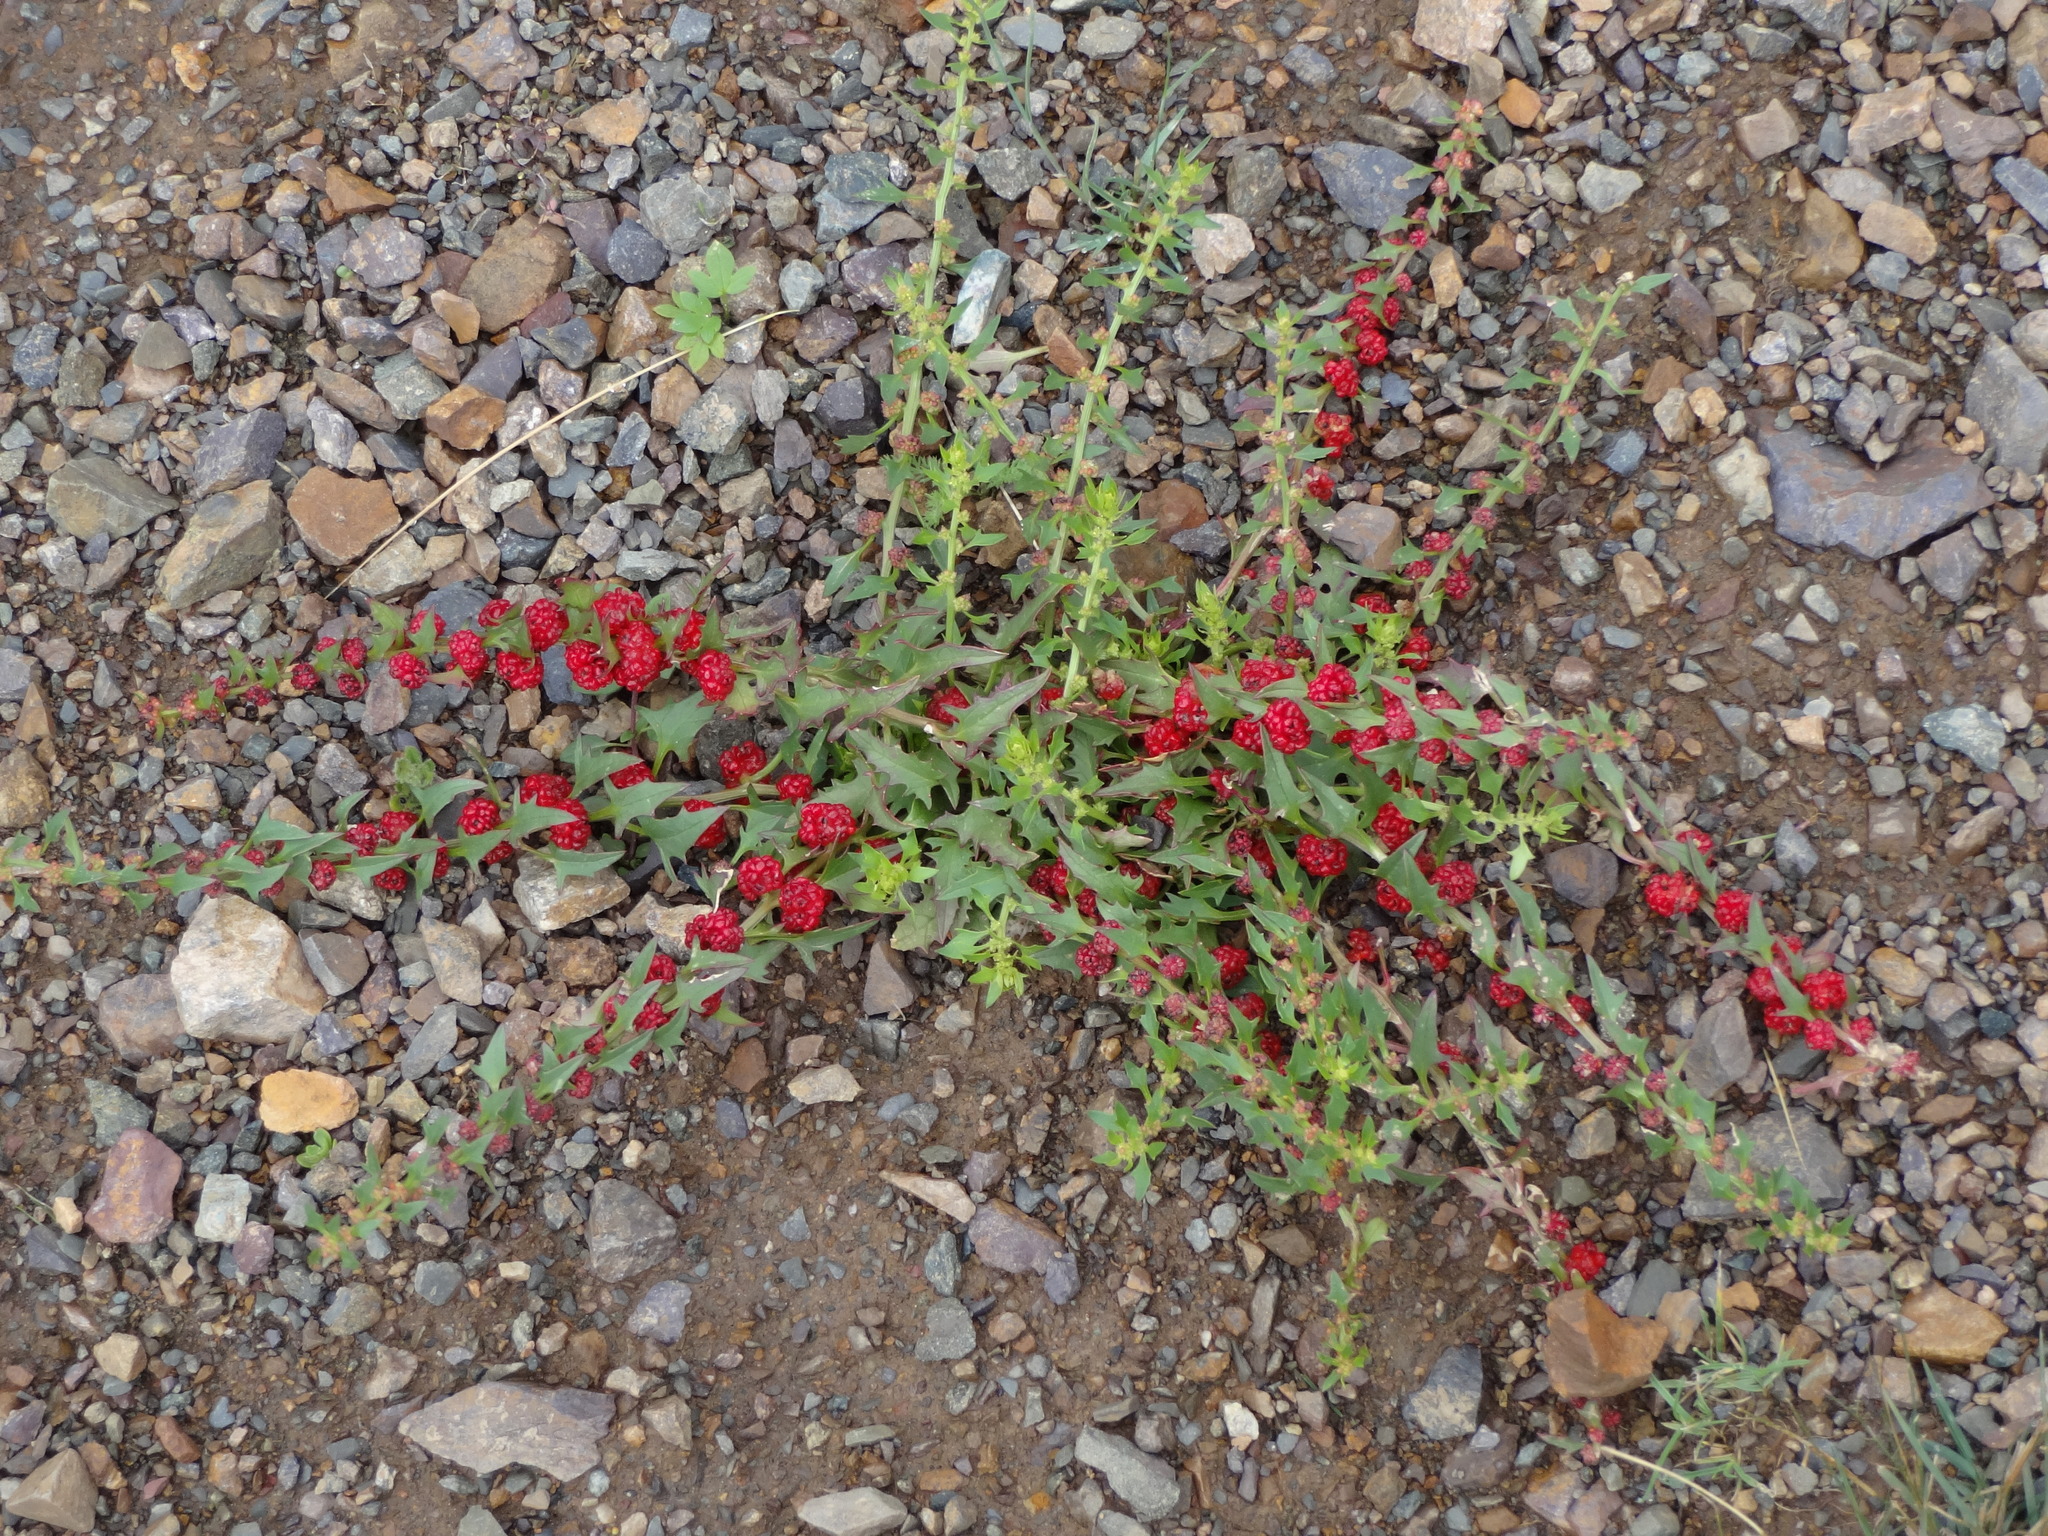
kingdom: Plantae
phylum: Tracheophyta
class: Magnoliopsida
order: Caryophyllales
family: Amaranthaceae
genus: Blitum
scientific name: Blitum virgatum
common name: Strawberry goosefoot
